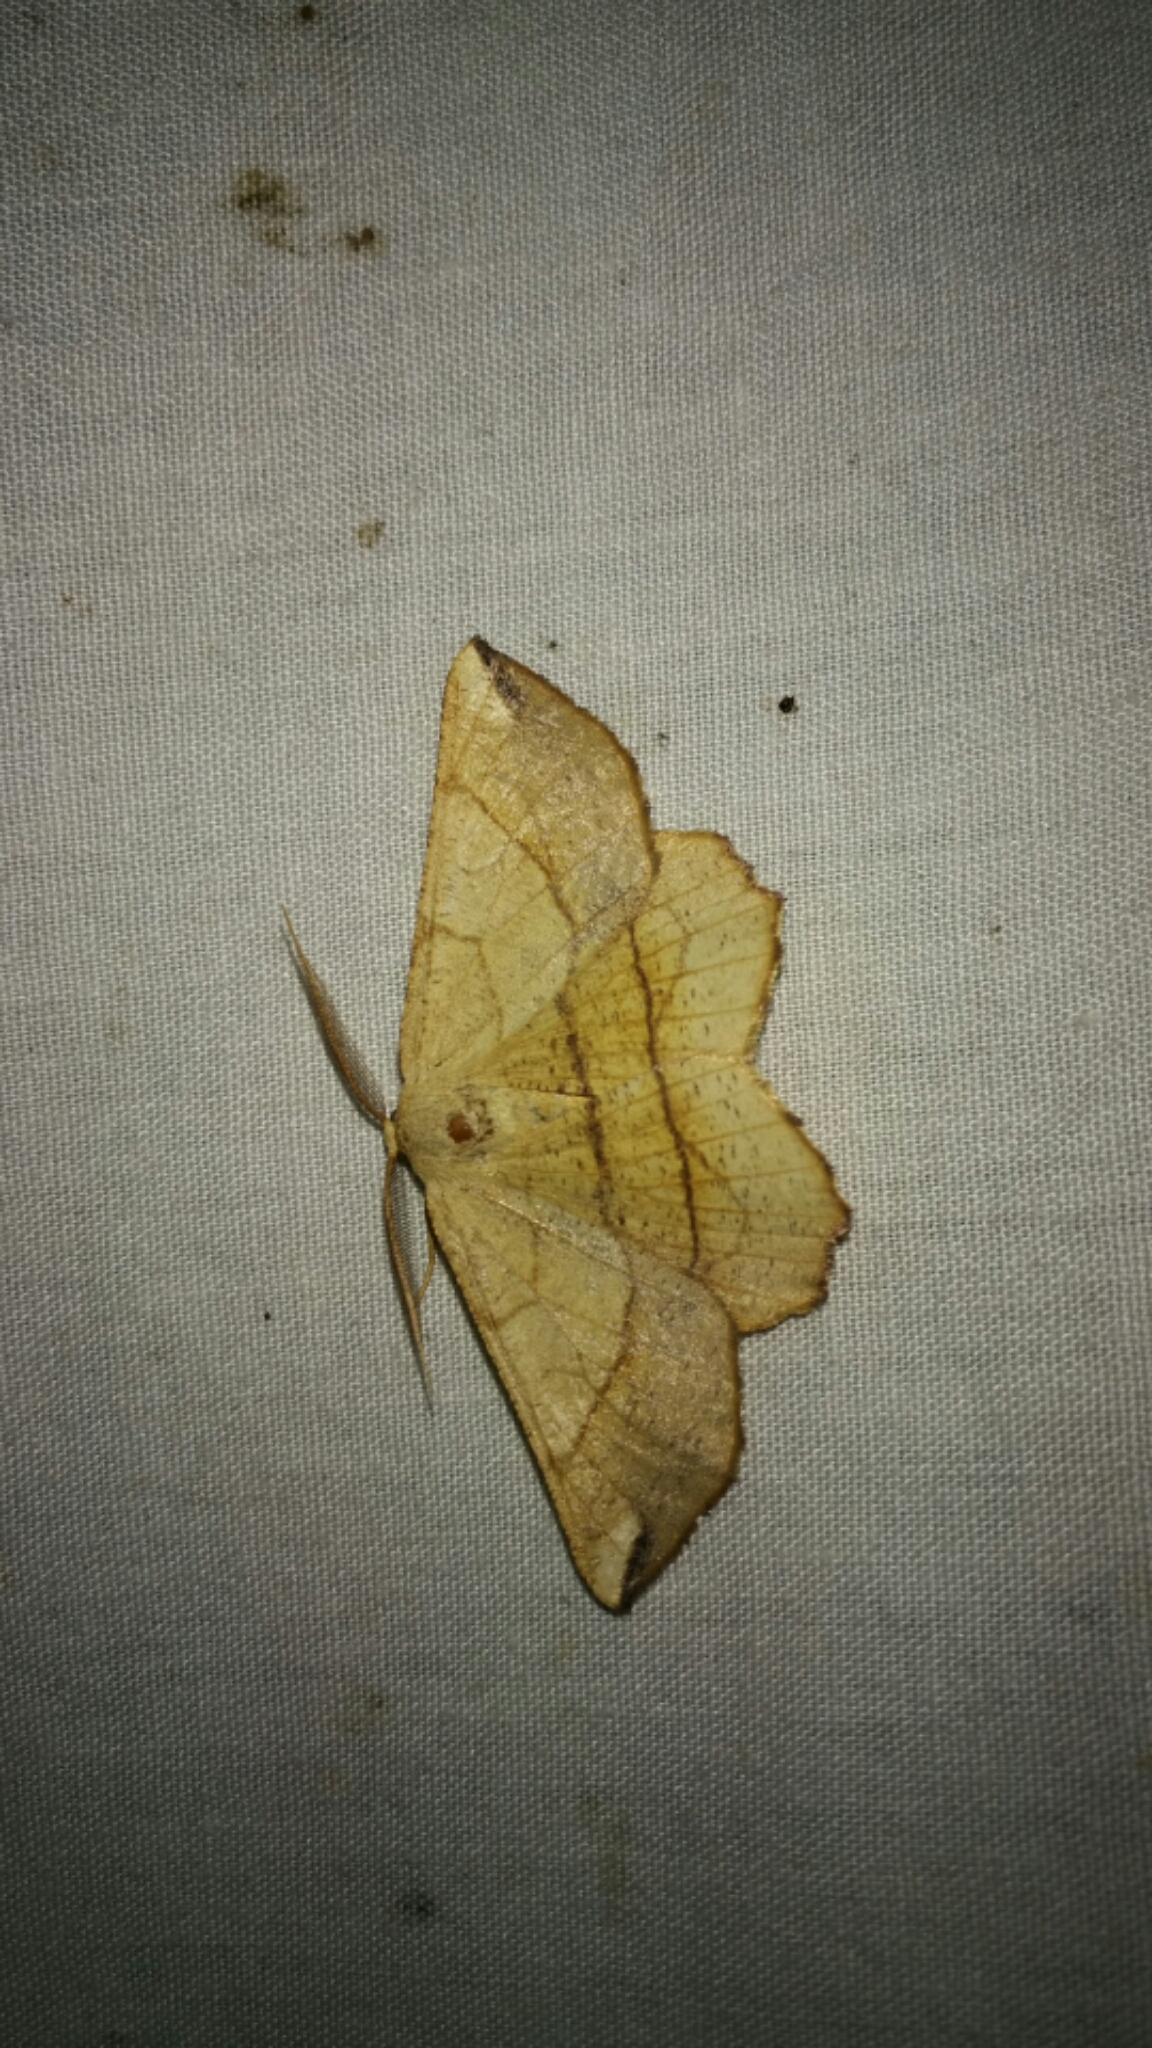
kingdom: Animalia
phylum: Arthropoda
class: Insecta
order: Lepidoptera
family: Geometridae
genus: Euchlaena
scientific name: Euchlaena madusaria
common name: Scrub euchlaena moth
